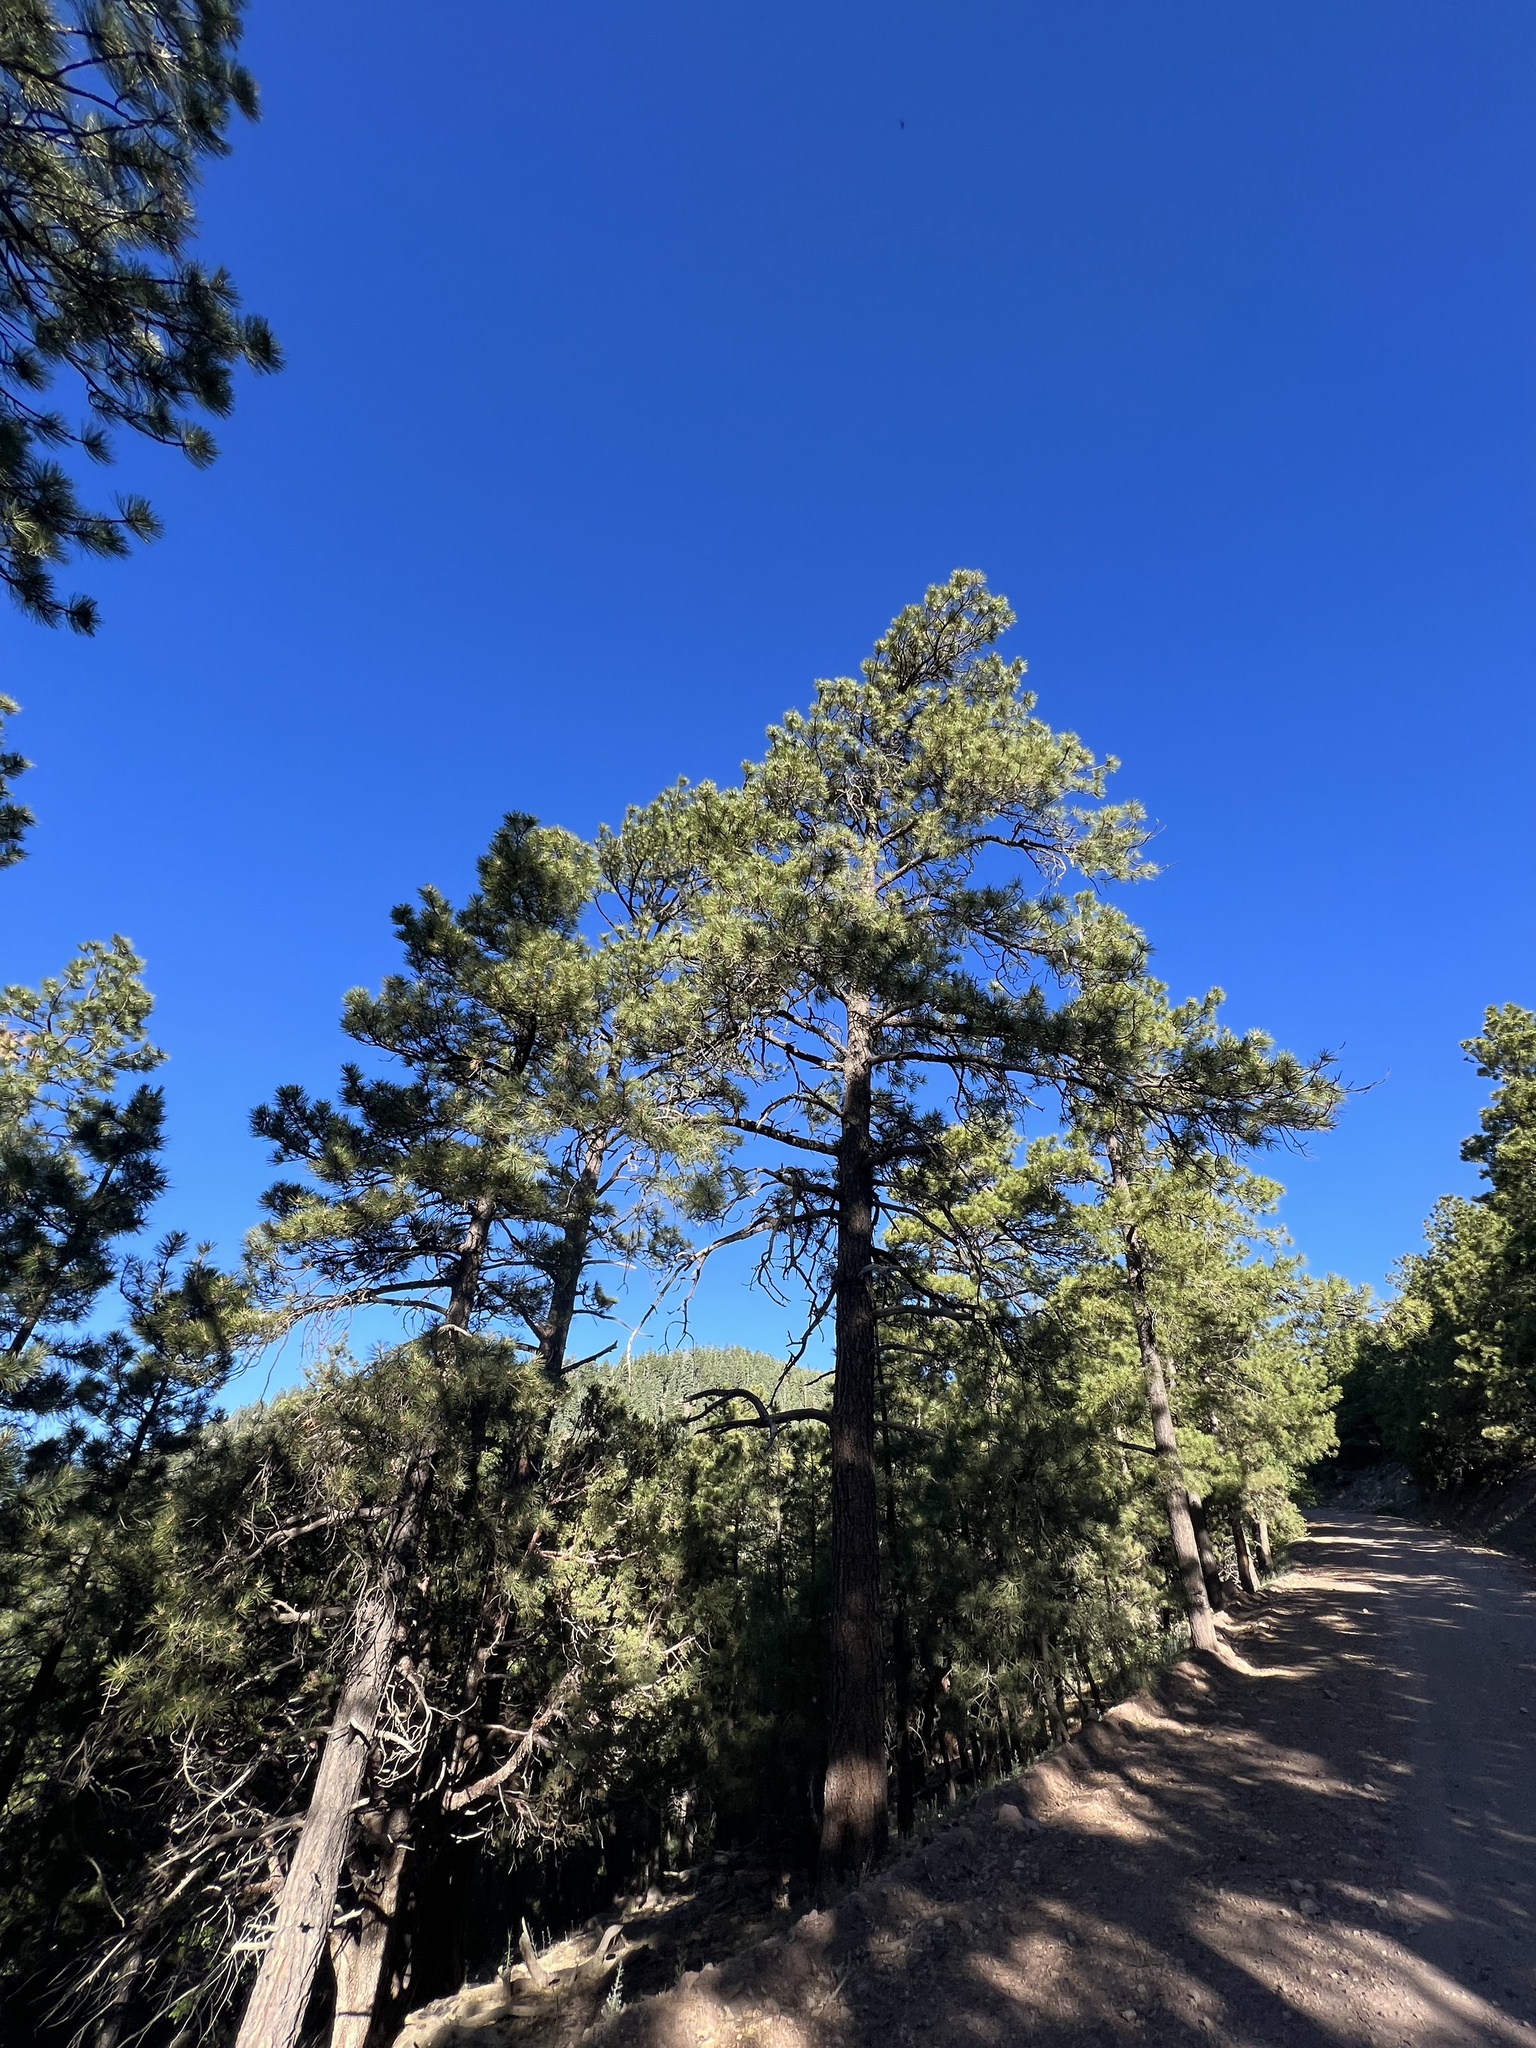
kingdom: Plantae
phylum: Tracheophyta
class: Pinopsida
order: Pinales
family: Pinaceae
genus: Pinus
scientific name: Pinus ponderosa
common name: Western yellow-pine
